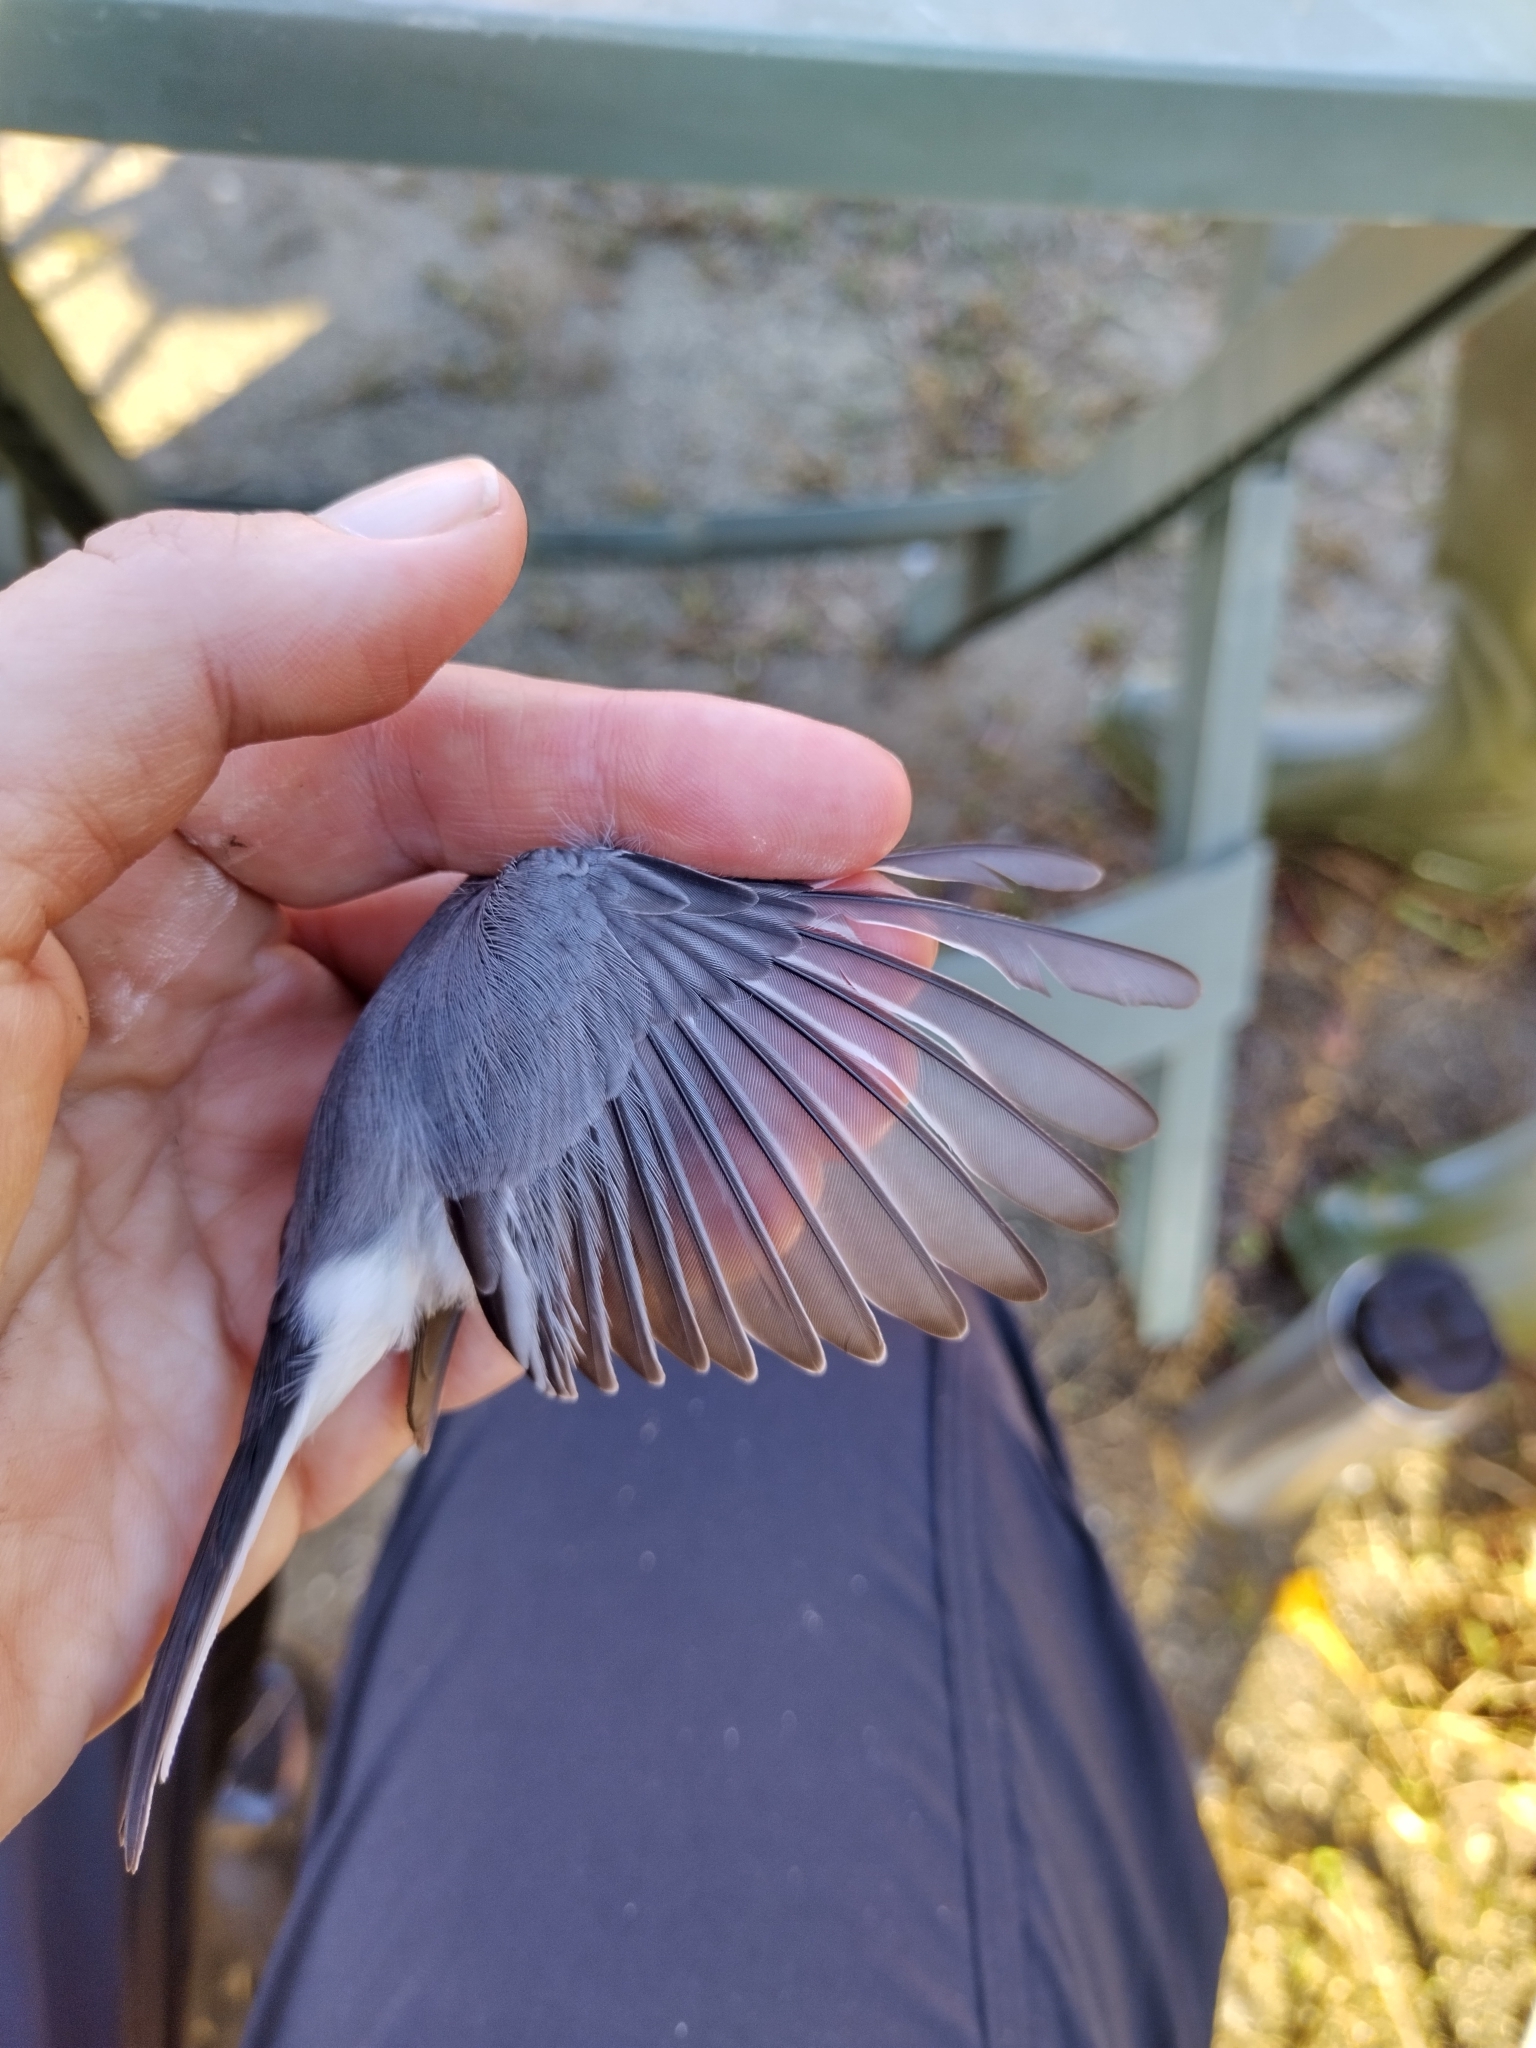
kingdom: Animalia
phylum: Chordata
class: Aves
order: Passeriformes
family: Polioptilidae
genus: Polioptila
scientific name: Polioptila caerulea
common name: Blue-gray gnatcatcher
